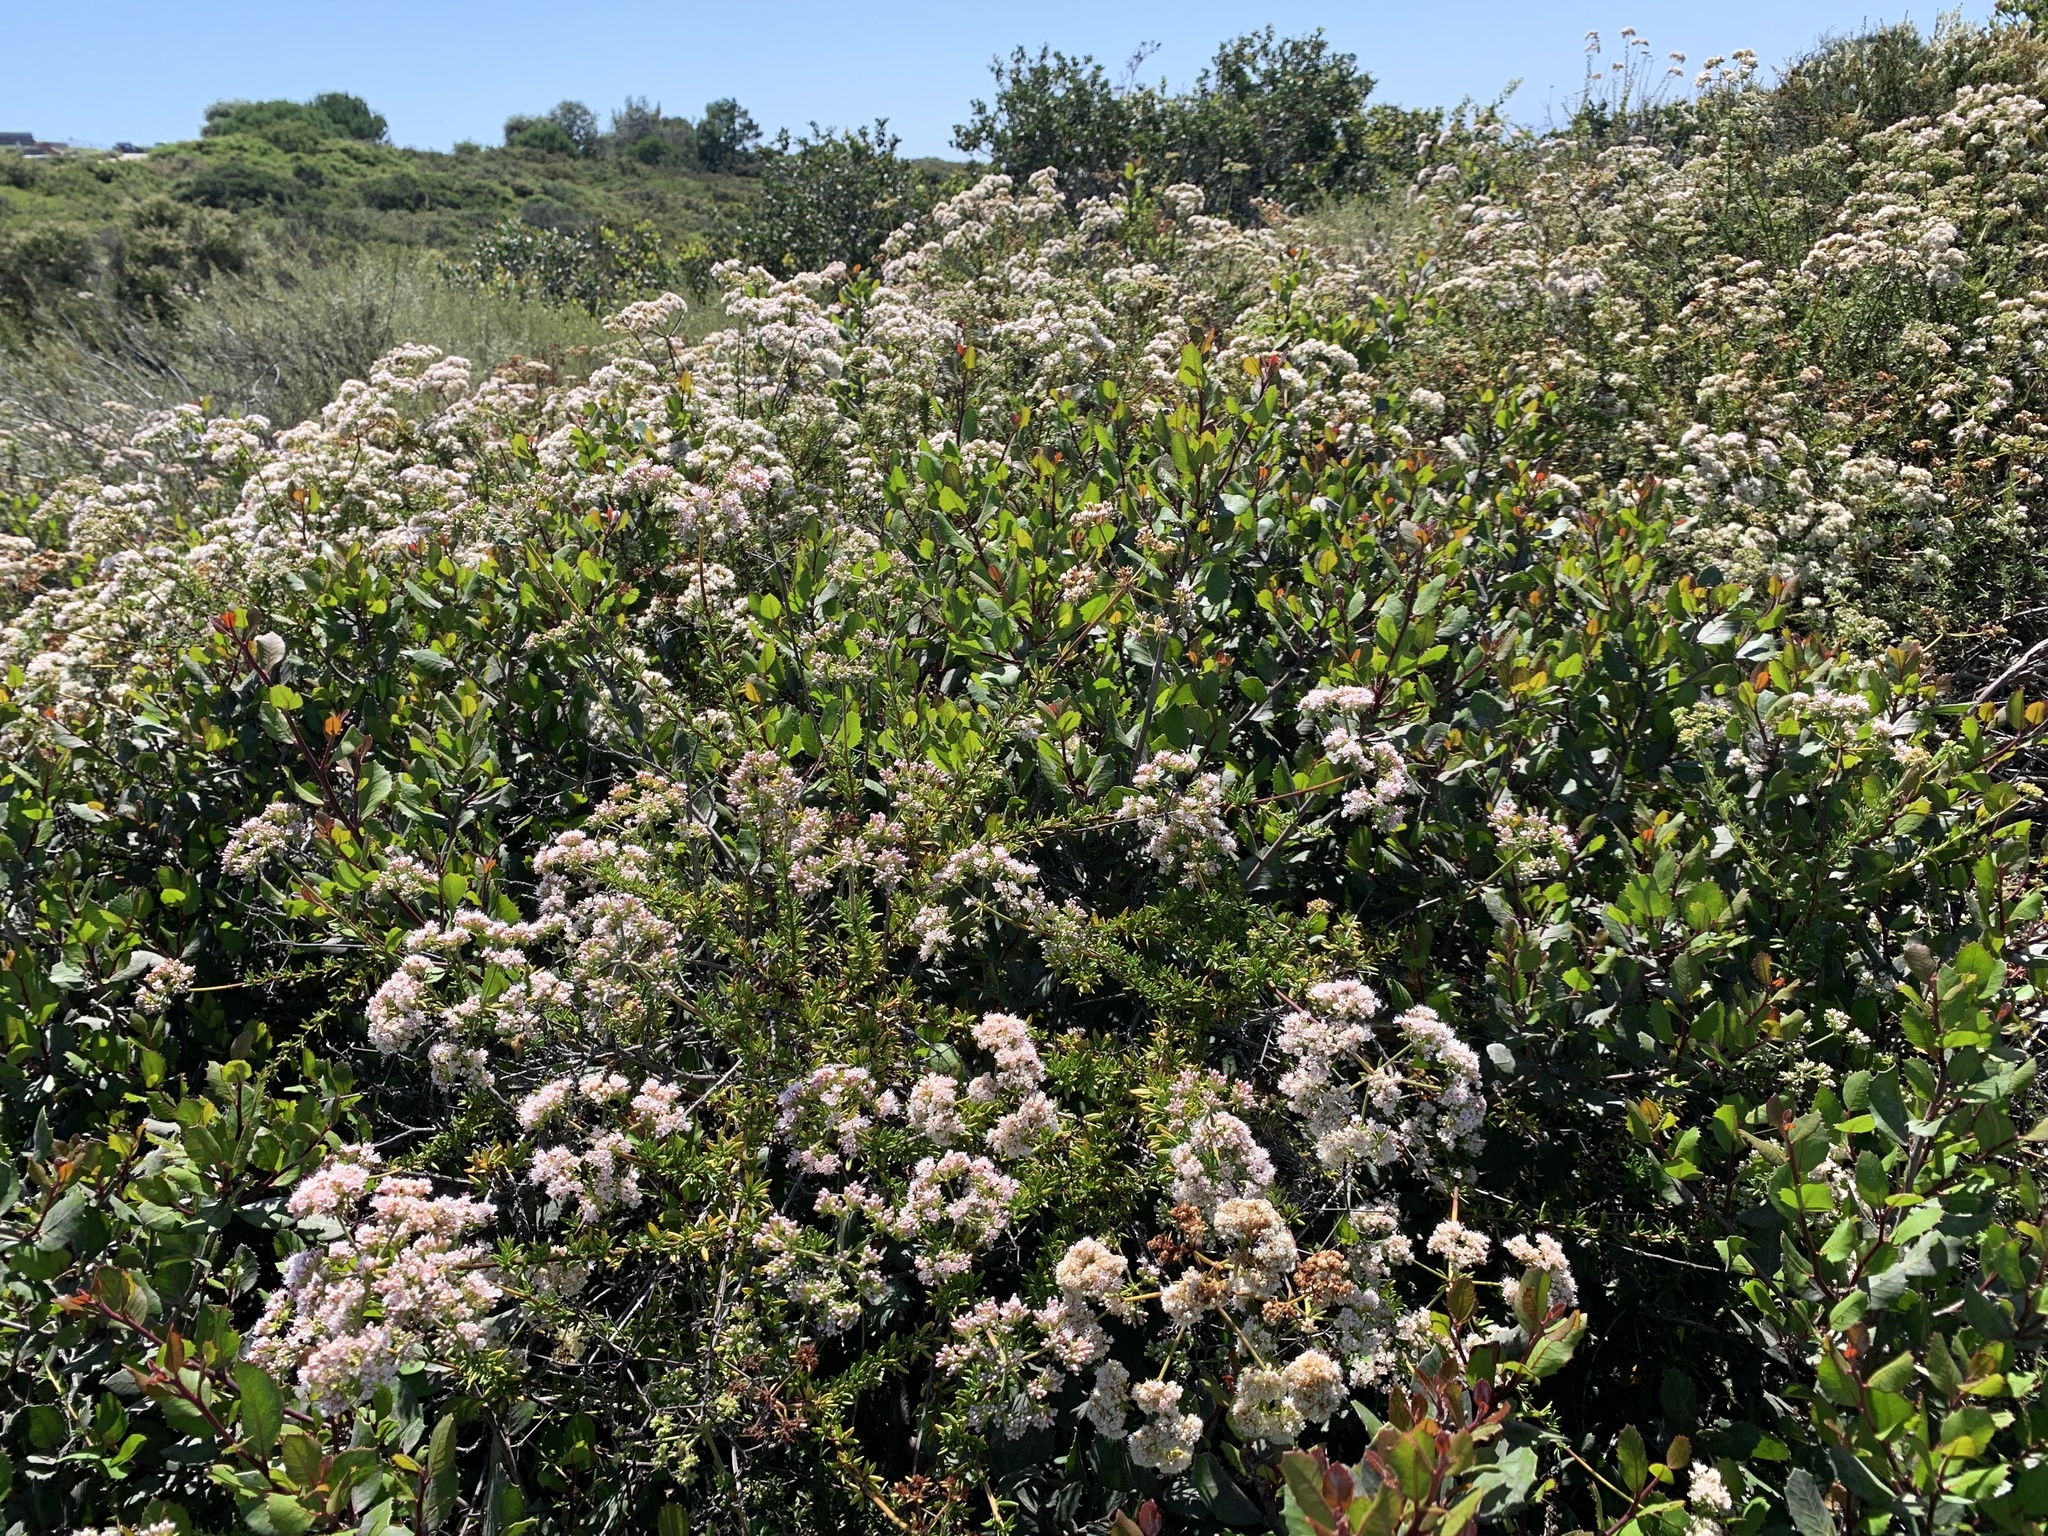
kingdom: Plantae
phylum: Tracheophyta
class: Magnoliopsida
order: Caryophyllales
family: Polygonaceae
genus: Eriogonum
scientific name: Eriogonum fasciculatum
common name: California wild buckwheat
